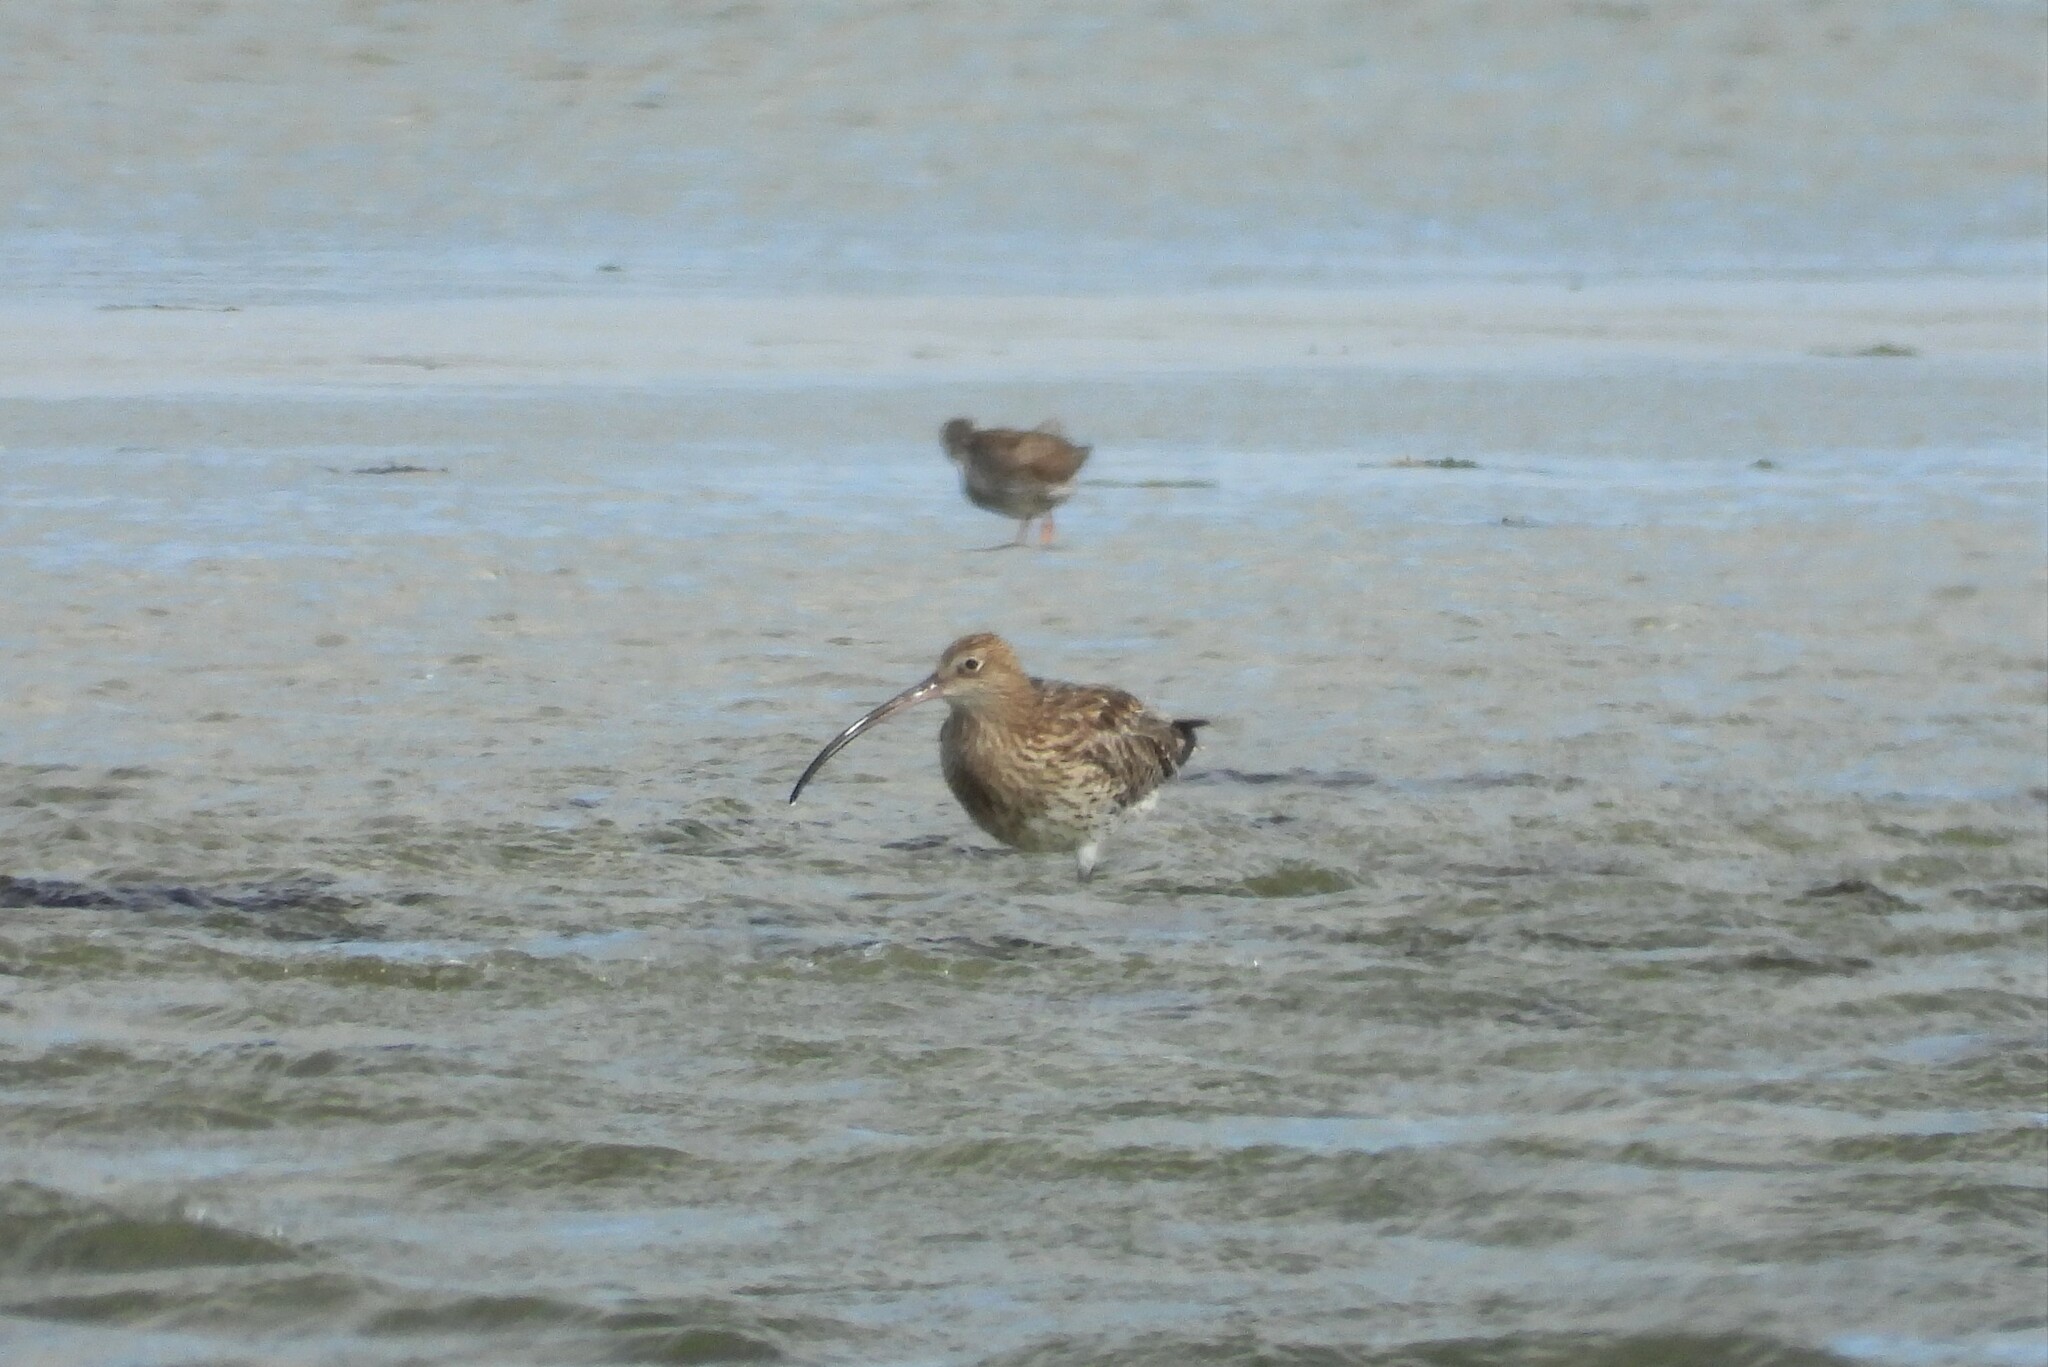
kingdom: Animalia
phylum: Chordata
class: Aves
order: Charadriiformes
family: Scolopacidae
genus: Numenius
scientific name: Numenius arquata
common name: Eurasian curlew
